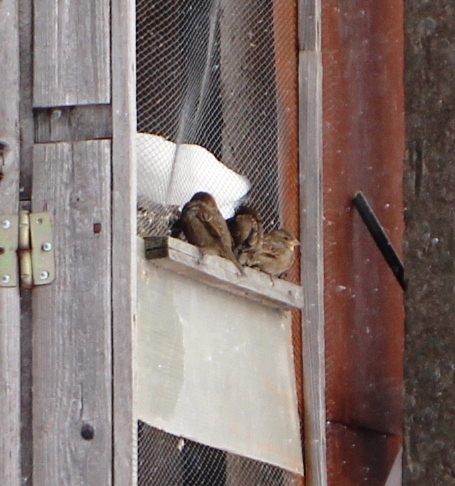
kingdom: Animalia
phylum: Chordata
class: Aves
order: Passeriformes
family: Passeridae
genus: Passer
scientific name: Passer domesticus
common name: House sparrow
